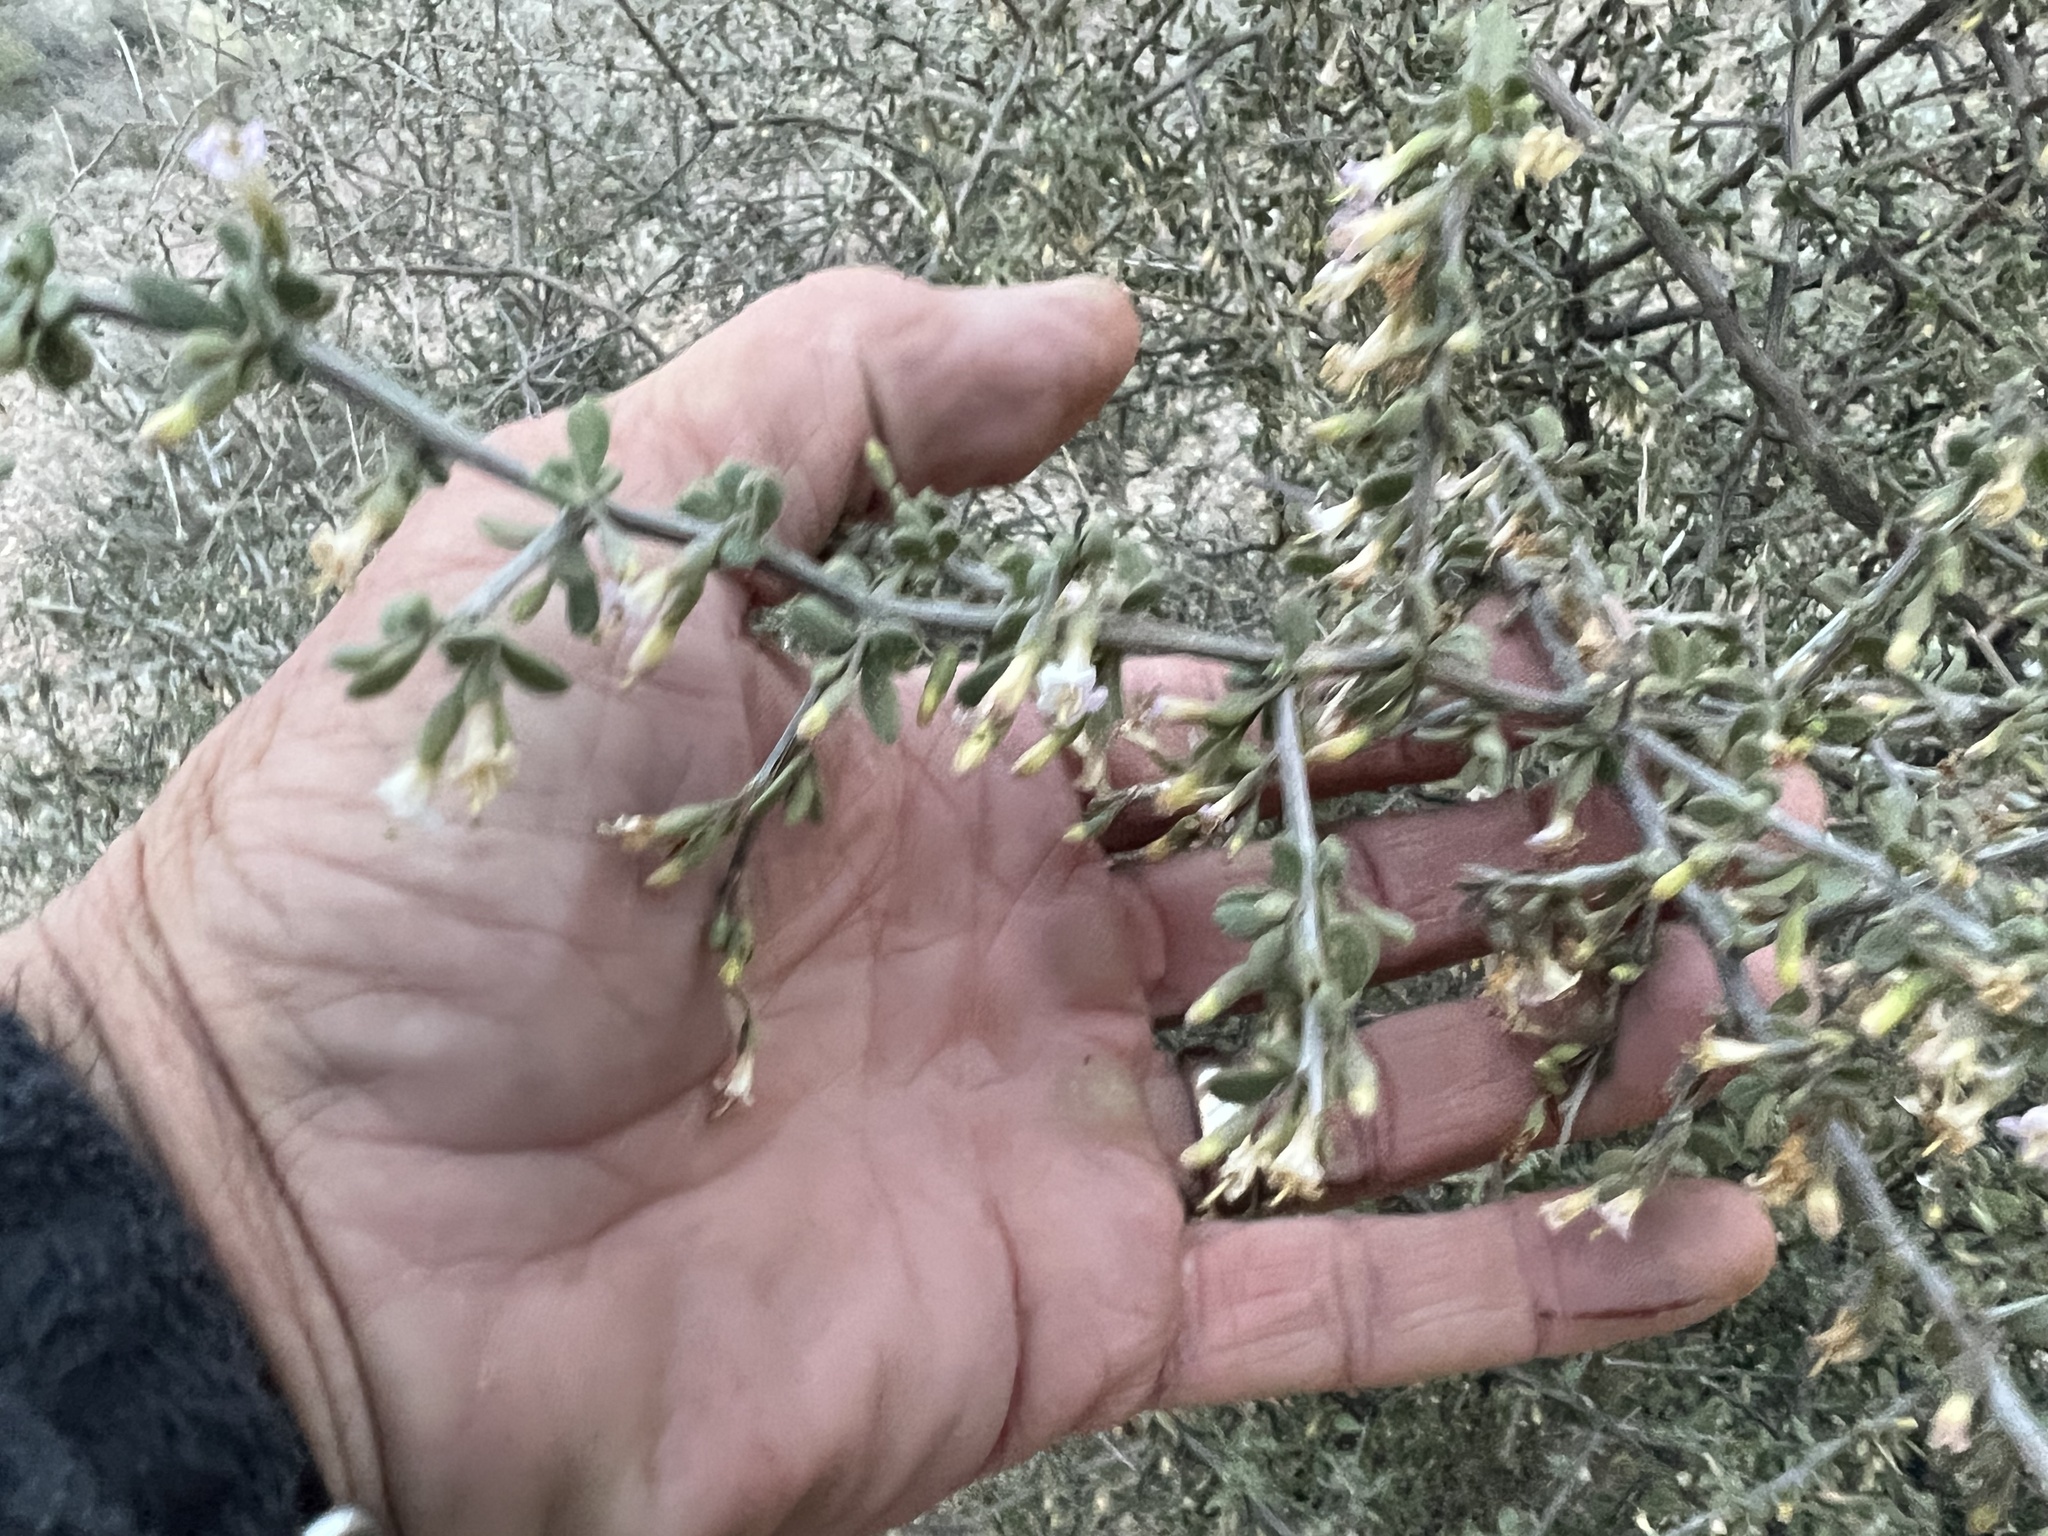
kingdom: Plantae
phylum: Tracheophyta
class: Magnoliopsida
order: Solanales
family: Solanaceae
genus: Lycium
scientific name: Lycium exsertum
